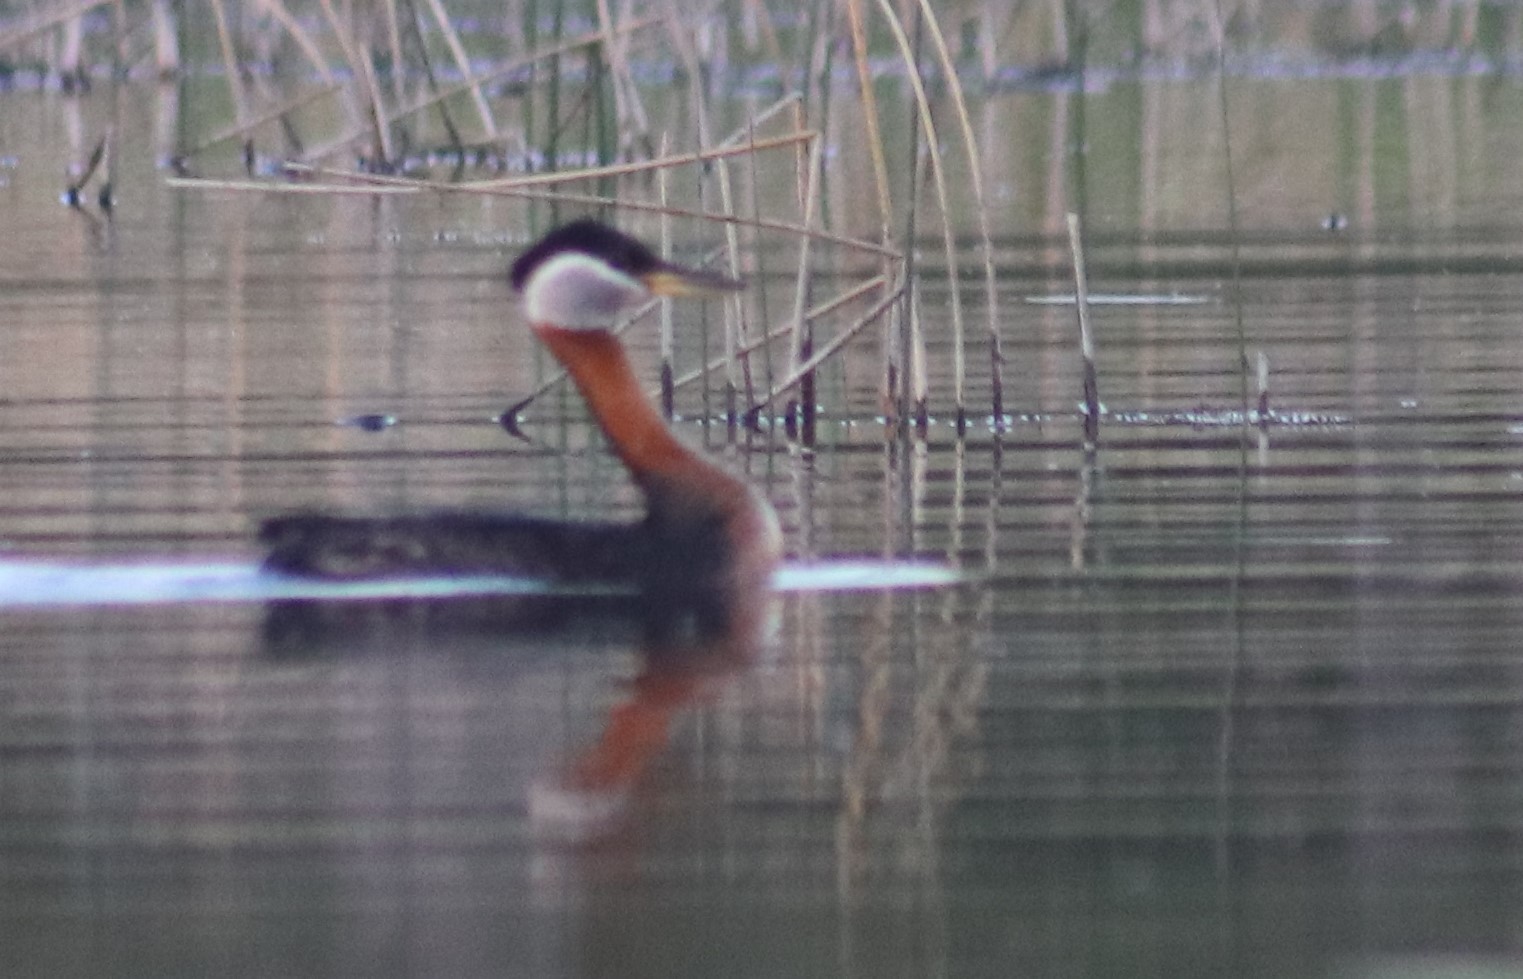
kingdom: Animalia
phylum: Chordata
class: Aves
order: Podicipediformes
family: Podicipedidae
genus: Podiceps
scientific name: Podiceps grisegena
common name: Red-necked grebe
